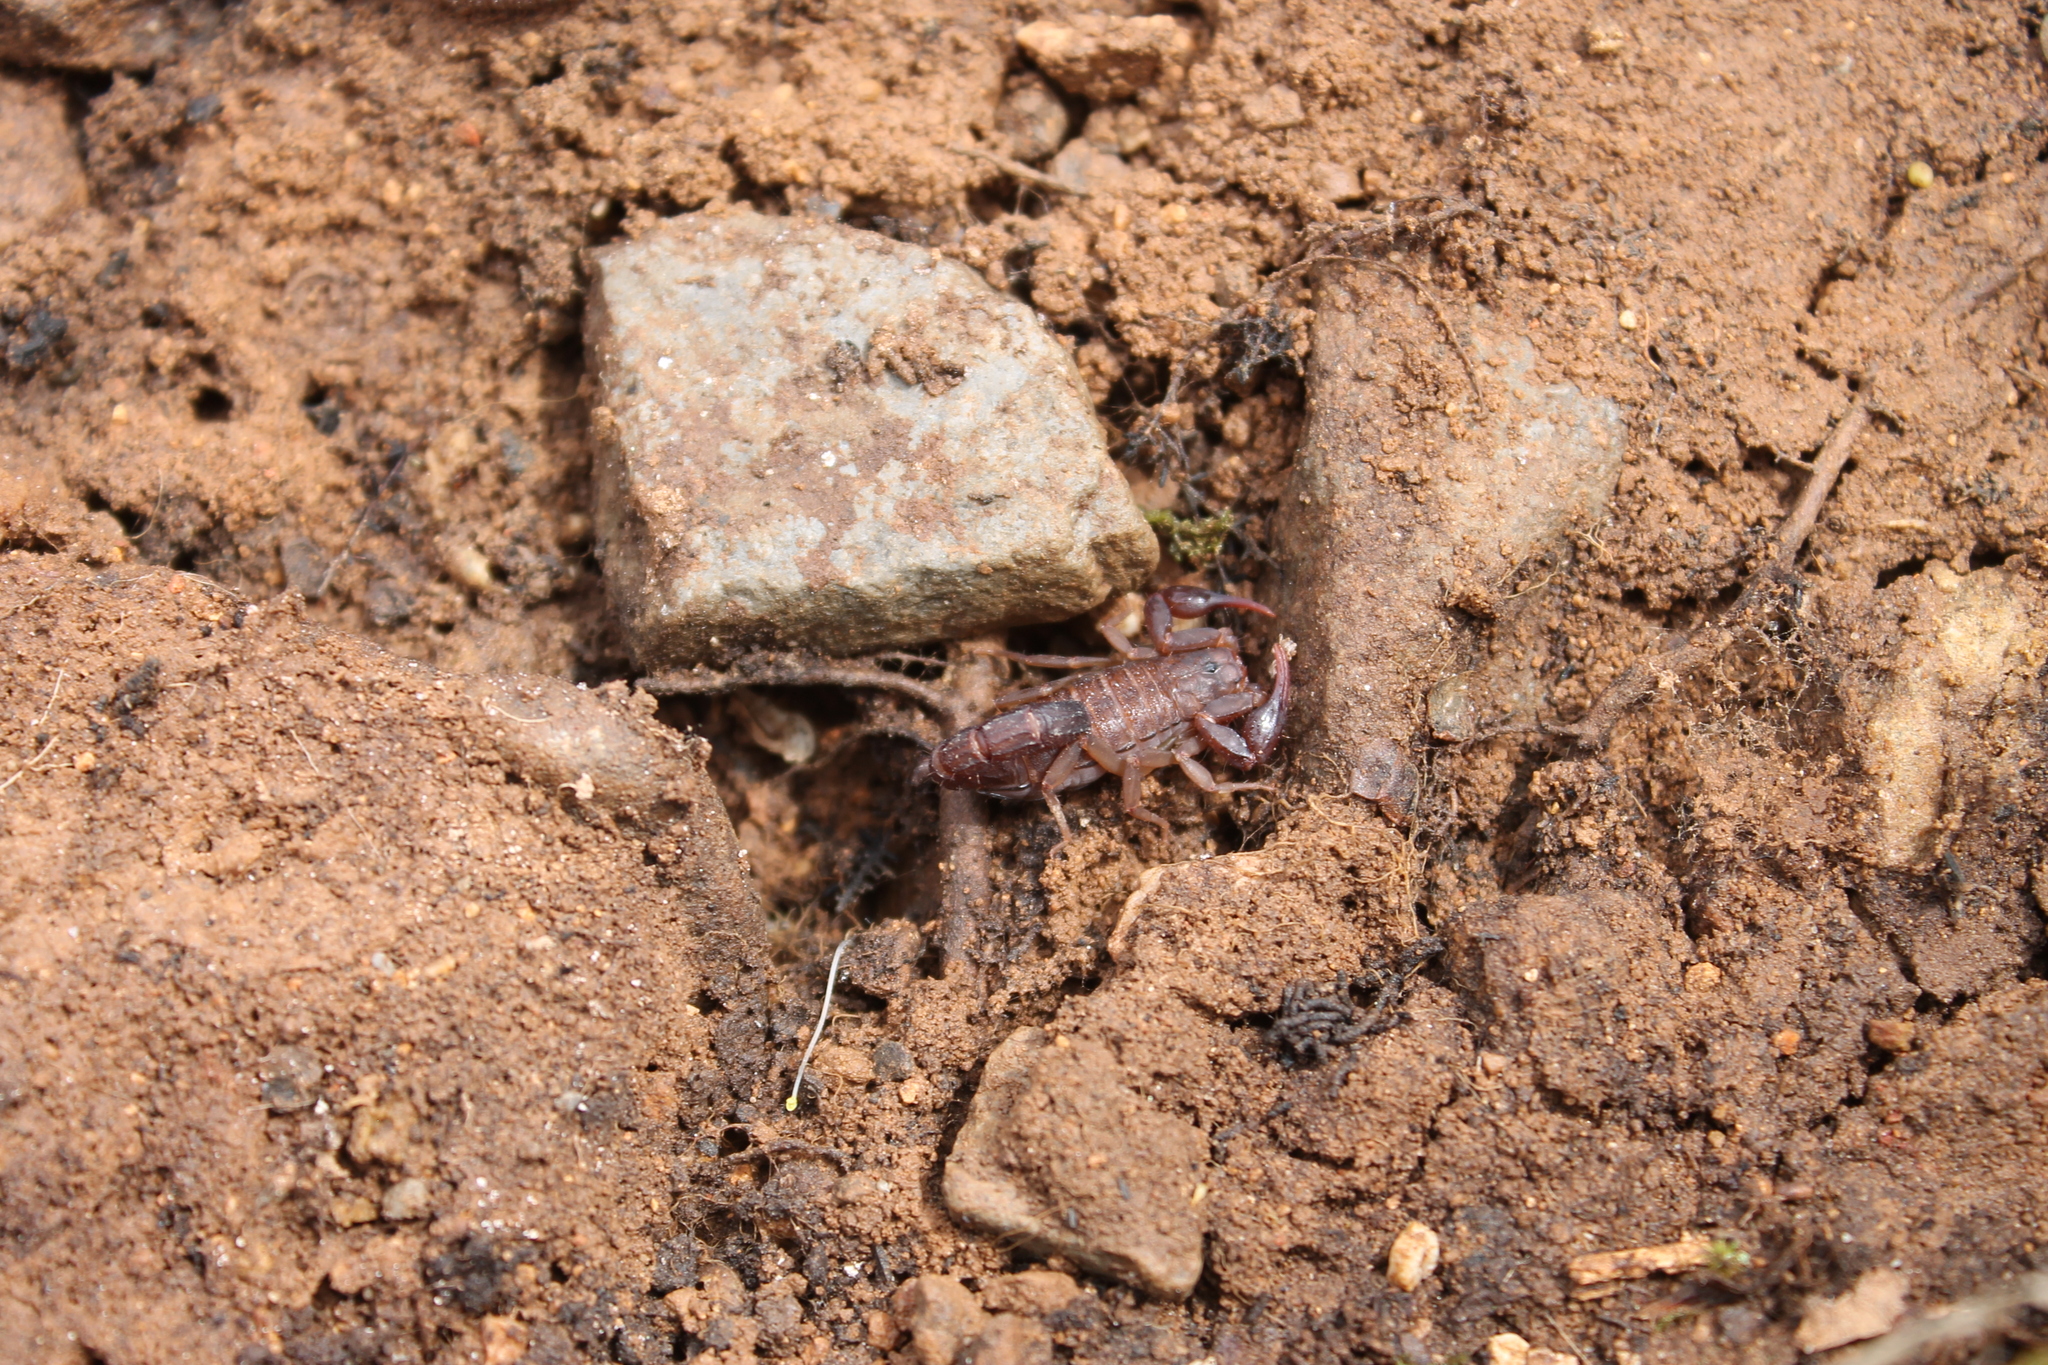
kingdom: Animalia
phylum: Arthropoda
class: Arachnida
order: Scorpiones
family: Vaejovidae
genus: Vaejovis
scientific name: Vaejovis carolinianus
